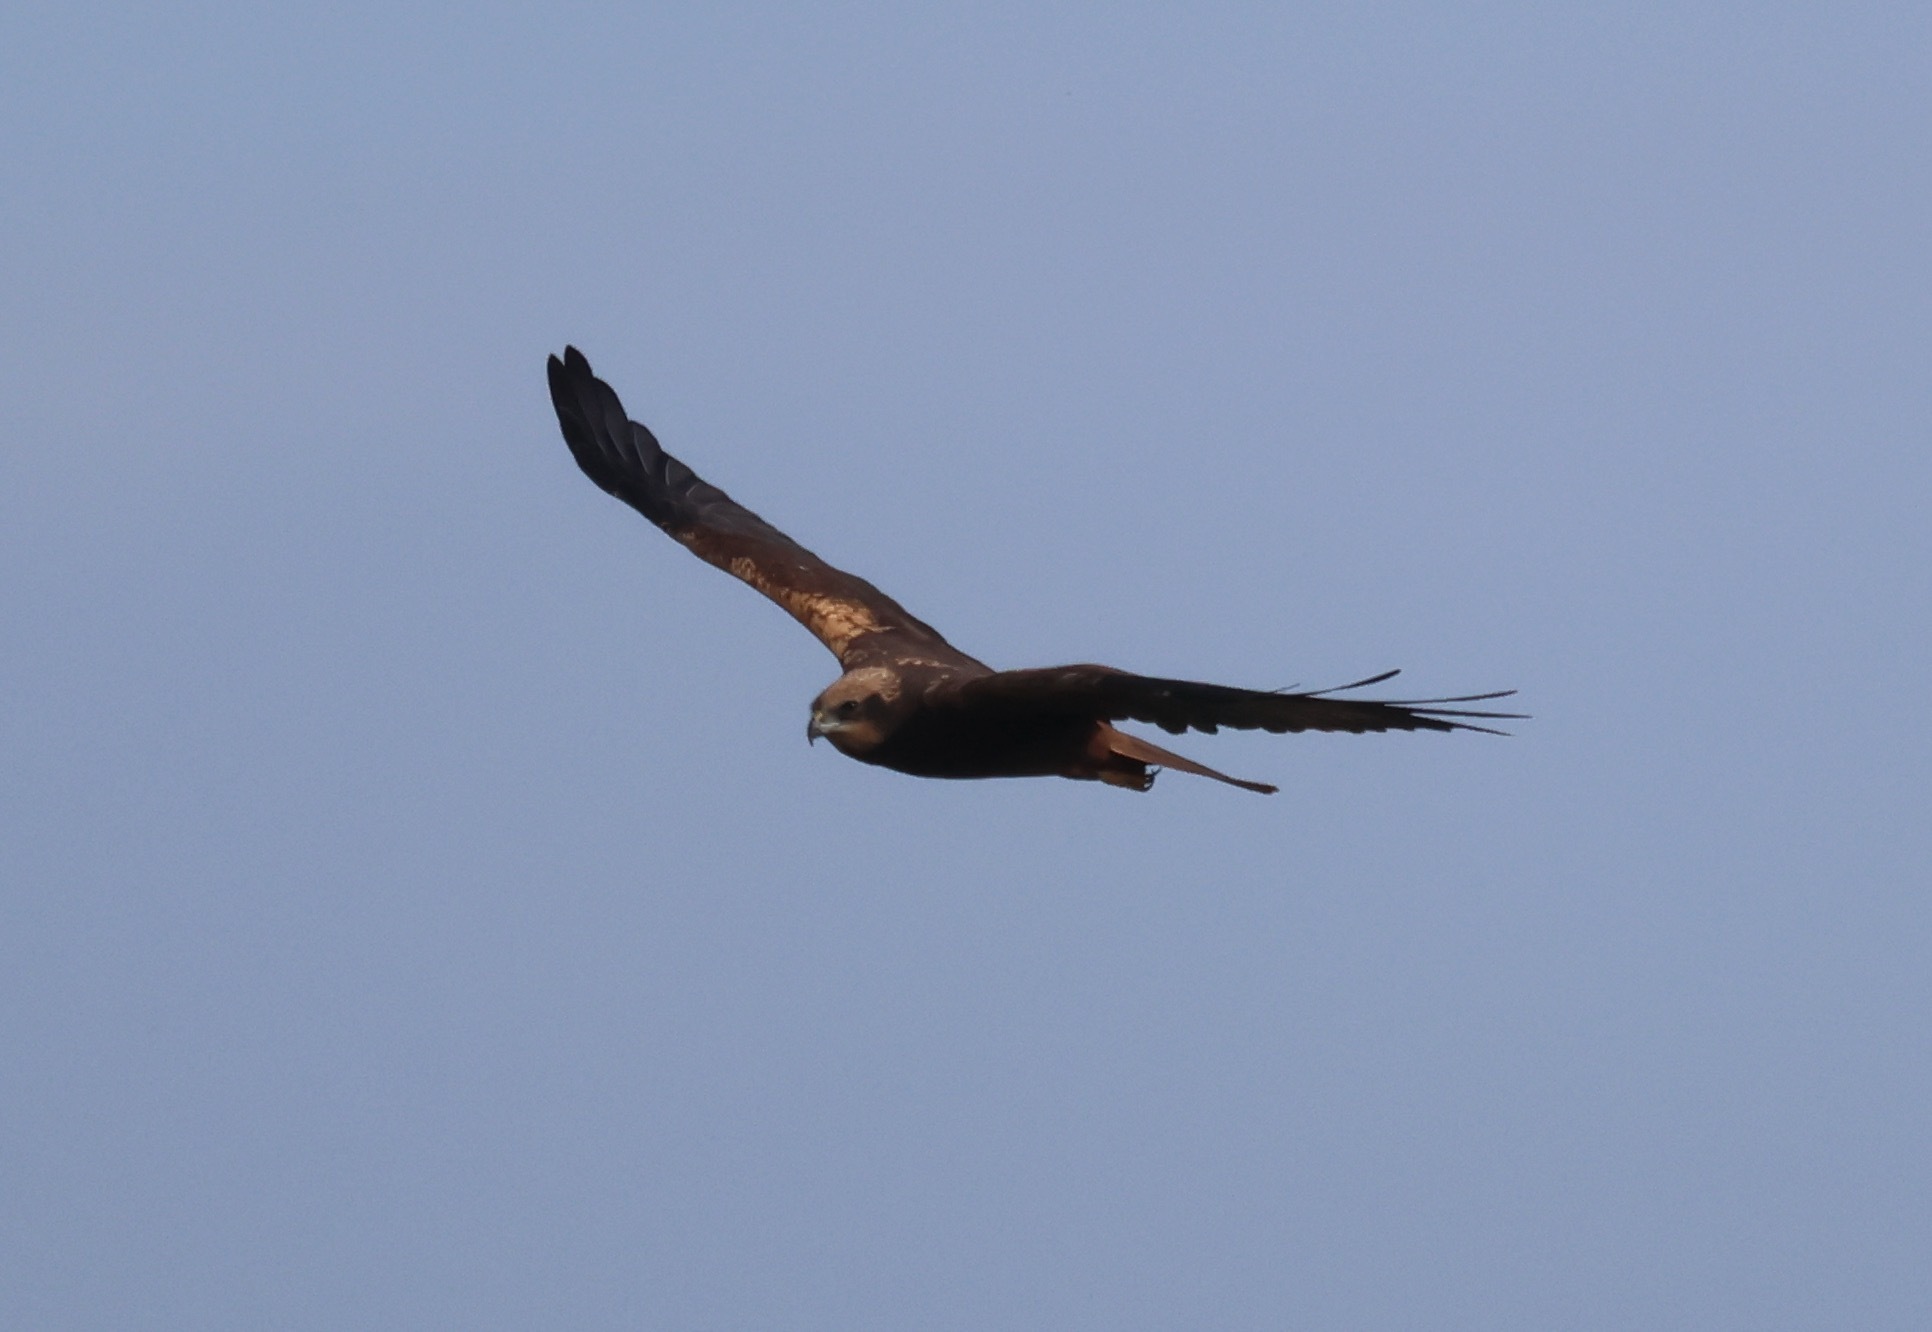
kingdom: Animalia
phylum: Chordata
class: Aves
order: Accipitriformes
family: Accipitridae
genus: Circus
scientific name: Circus aeruginosus
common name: Western marsh harrier
